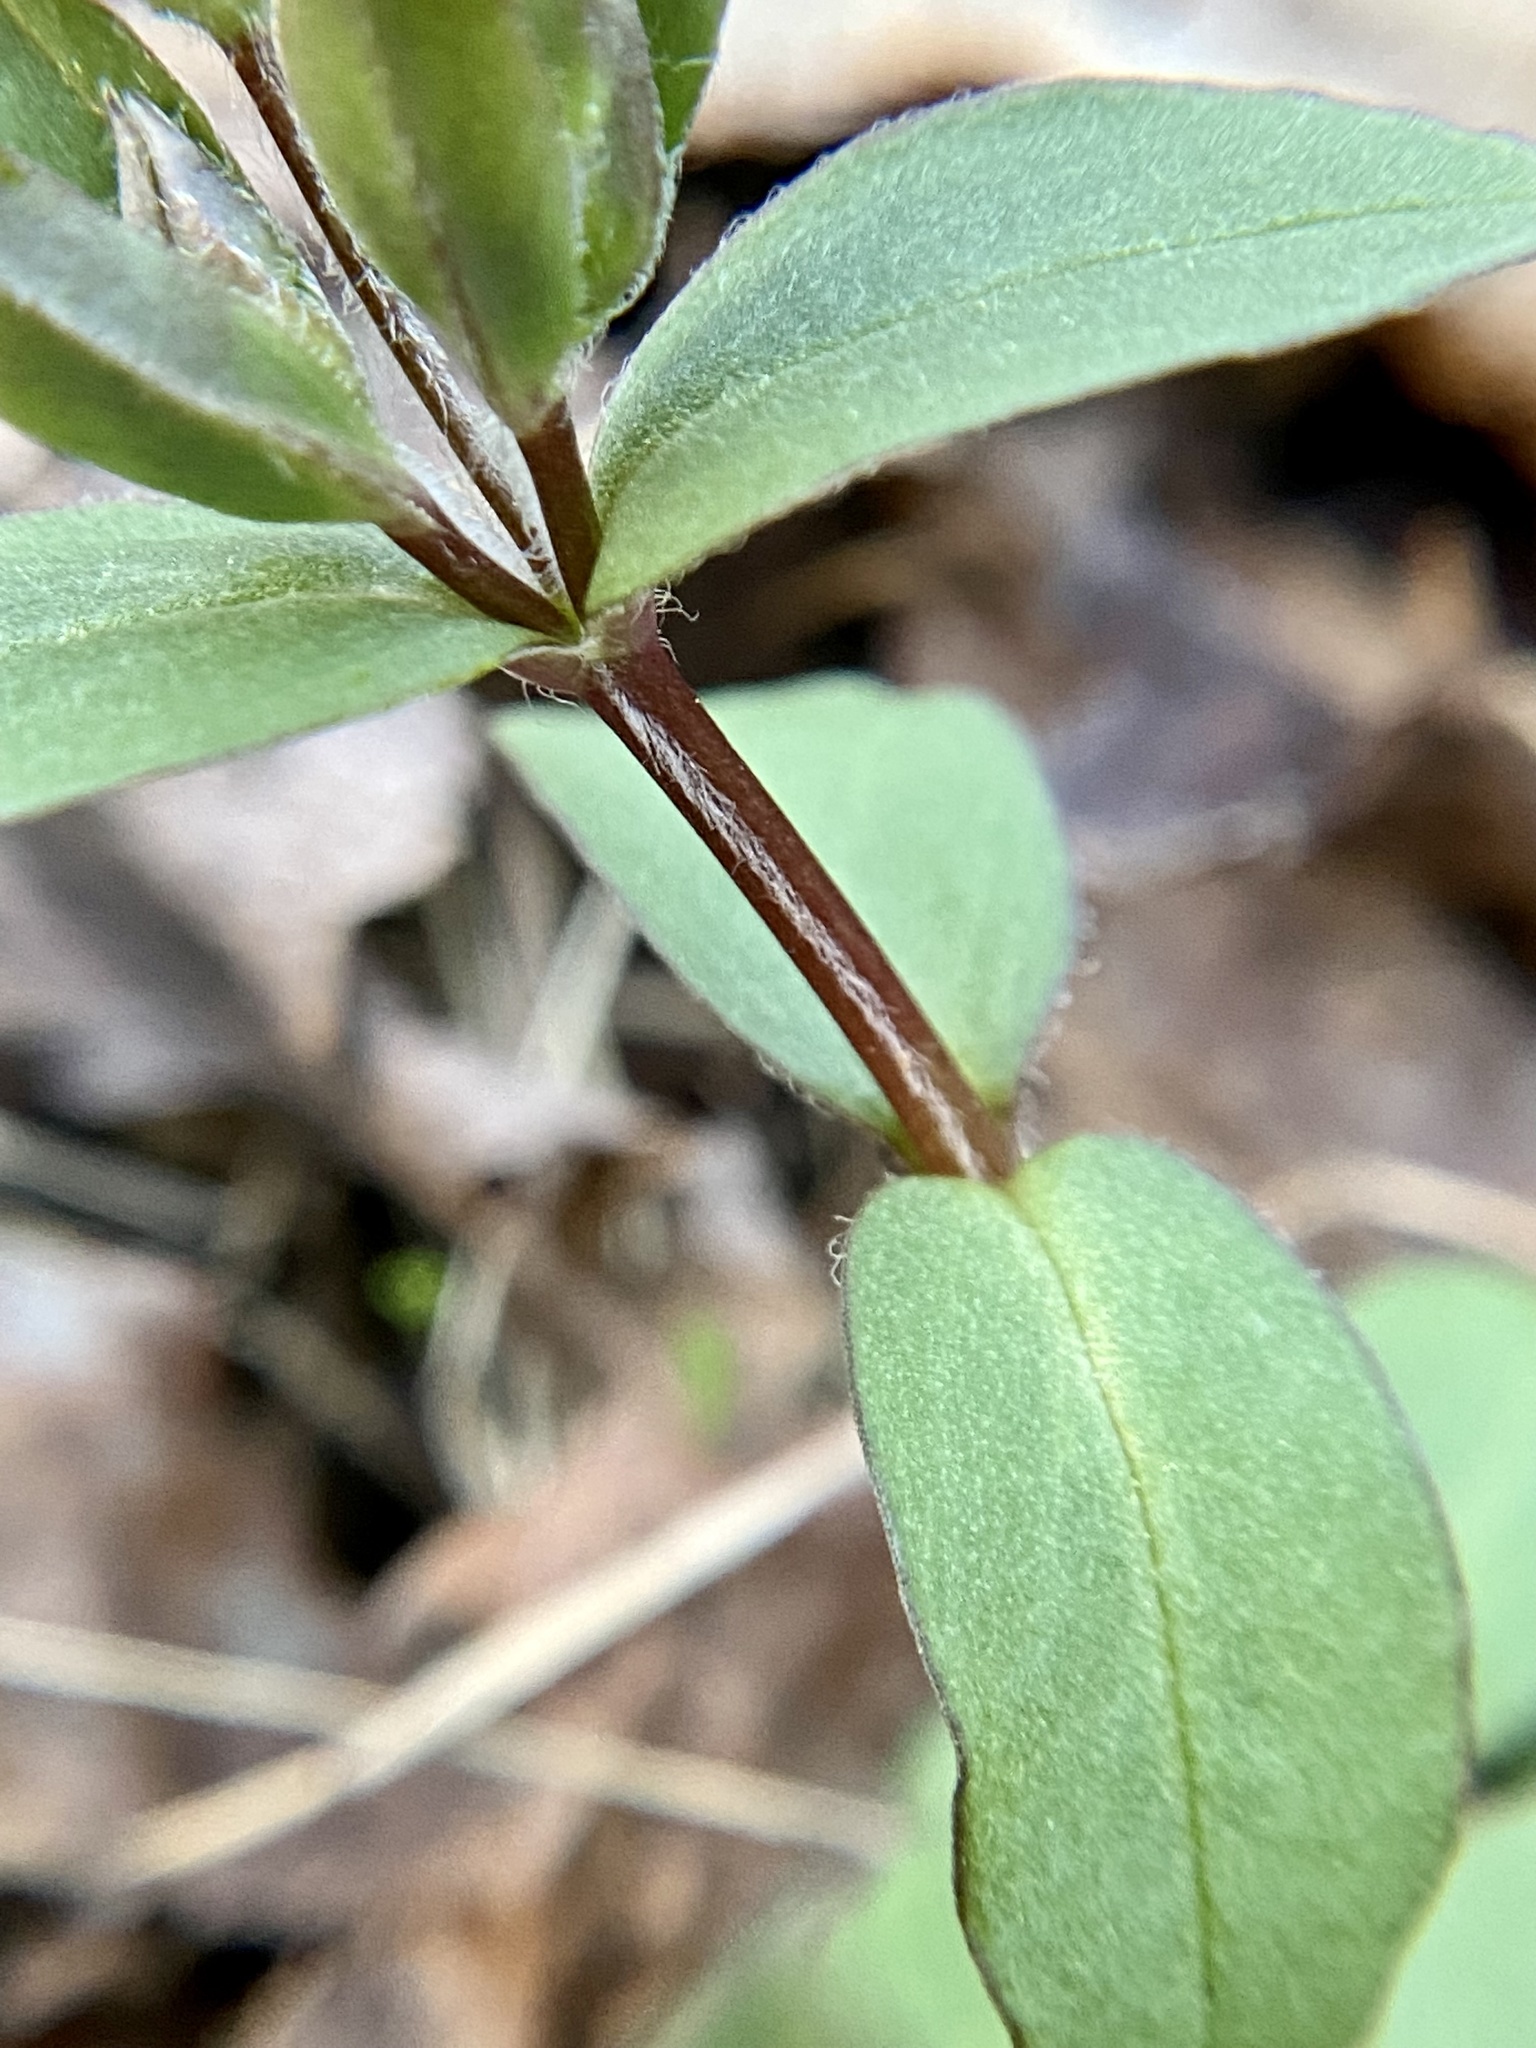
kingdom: Plantae
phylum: Tracheophyta
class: Magnoliopsida
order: Caryophyllales
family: Caryophyllaceae
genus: Stellaria
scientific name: Stellaria pubera
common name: Star chickweed
